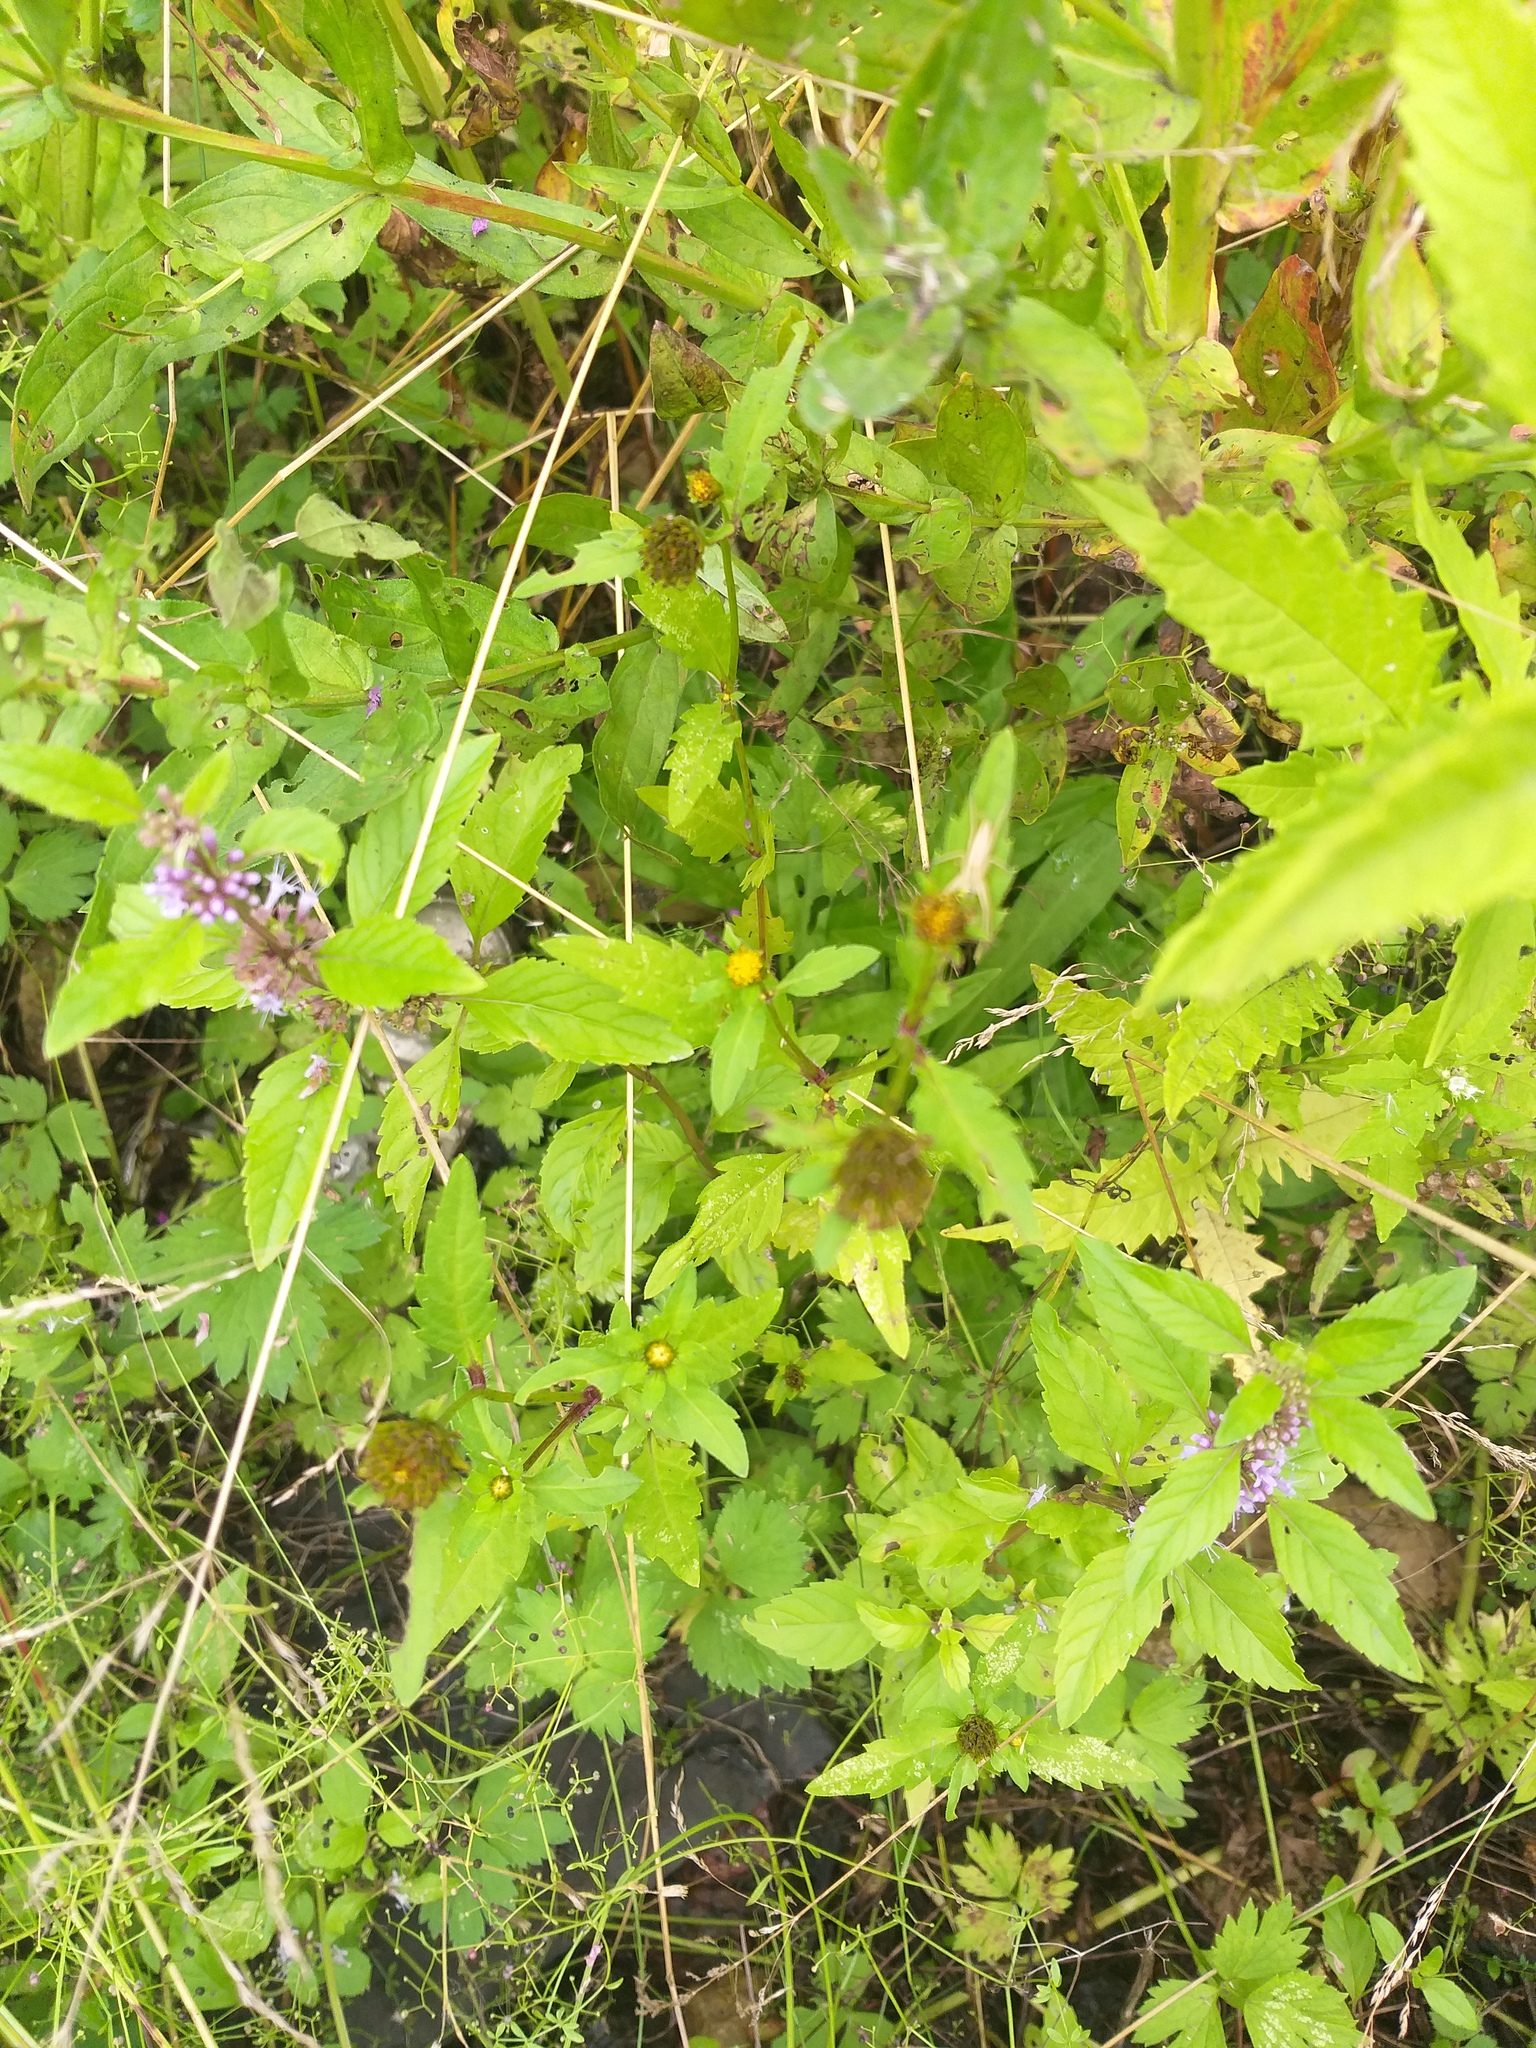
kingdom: Plantae
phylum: Tracheophyta
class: Magnoliopsida
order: Asterales
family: Asteraceae
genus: Bidens
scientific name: Bidens tripartita
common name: Trifid bur-marigold
